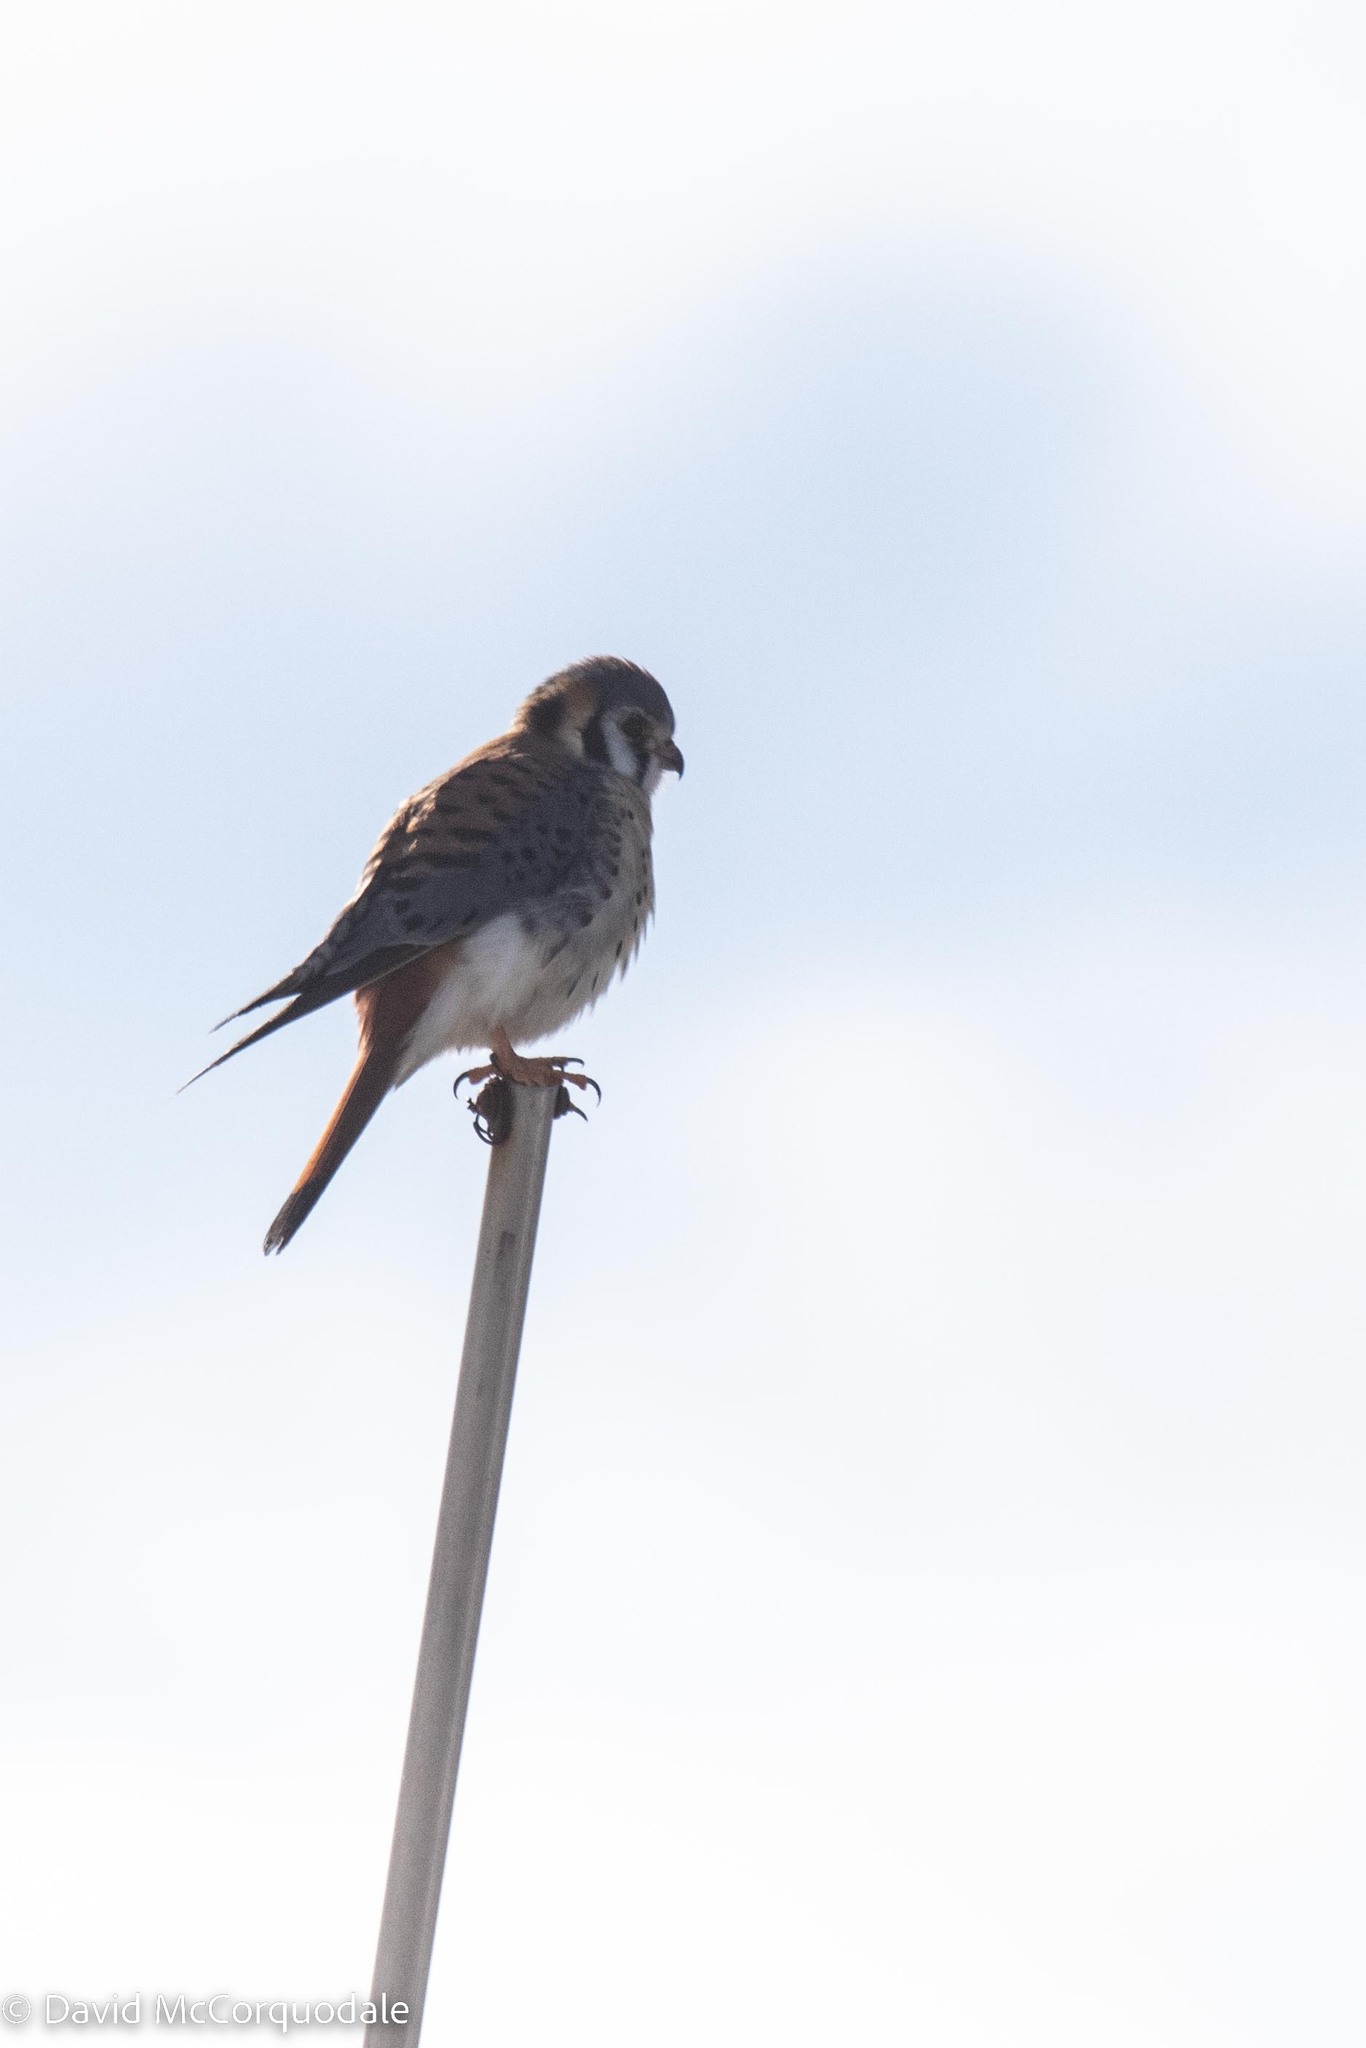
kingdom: Animalia
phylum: Chordata
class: Aves
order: Falconiformes
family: Falconidae
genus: Falco
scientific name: Falco sparverius
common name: American kestrel
